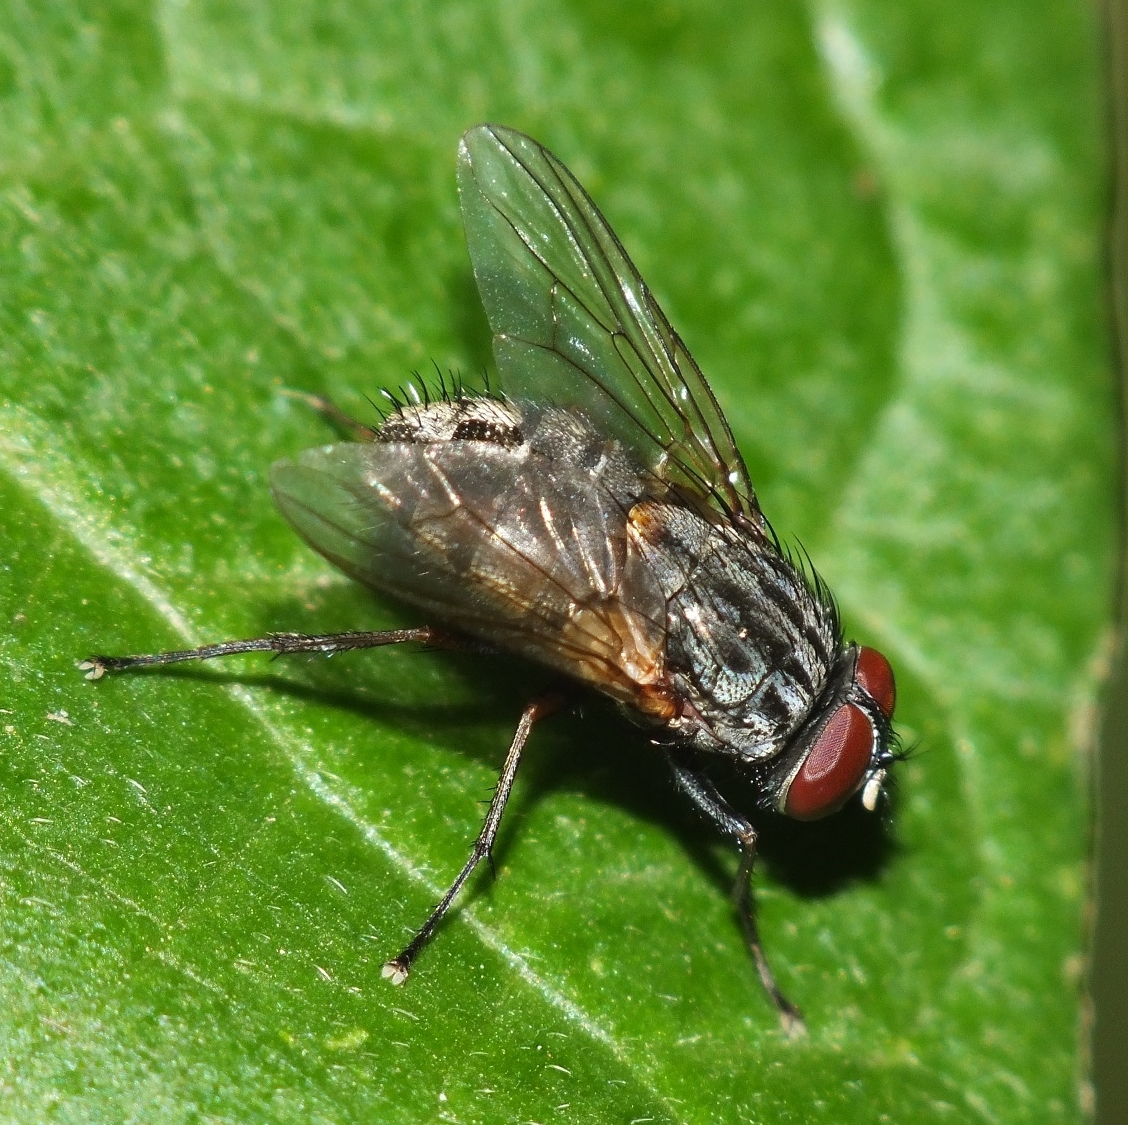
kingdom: Animalia
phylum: Arthropoda
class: Insecta
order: Diptera
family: Muscidae
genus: Muscina
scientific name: Muscina stabulans
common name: False stable fly
